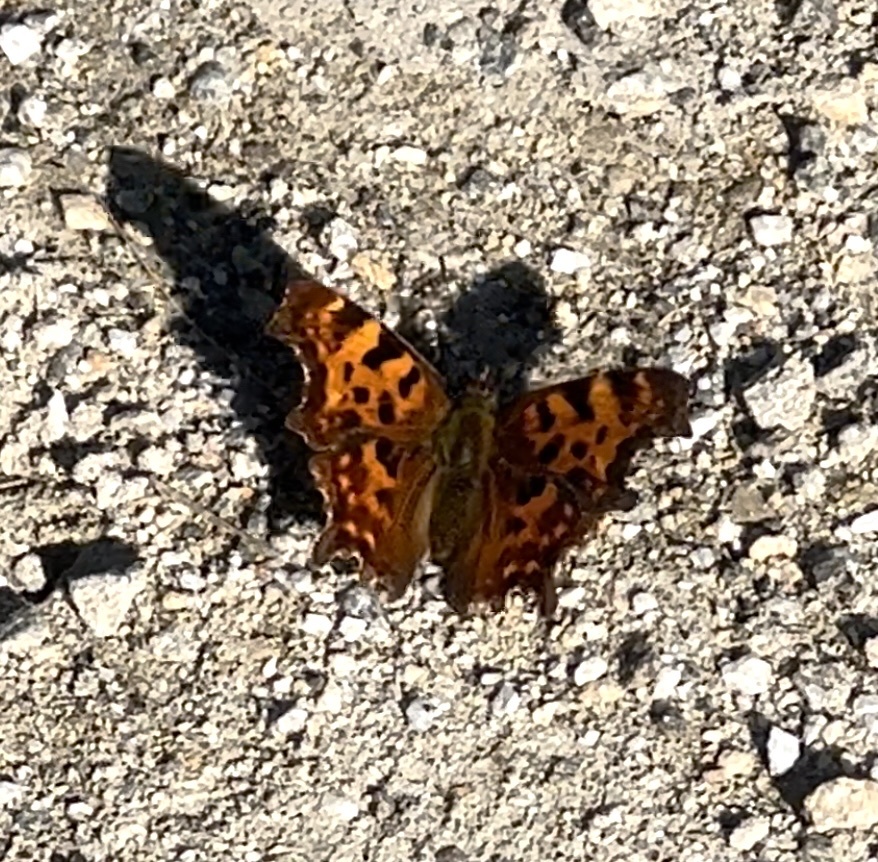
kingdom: Animalia
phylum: Arthropoda
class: Insecta
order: Lepidoptera
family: Nymphalidae
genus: Polygonia
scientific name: Polygonia c-album
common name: Comma
